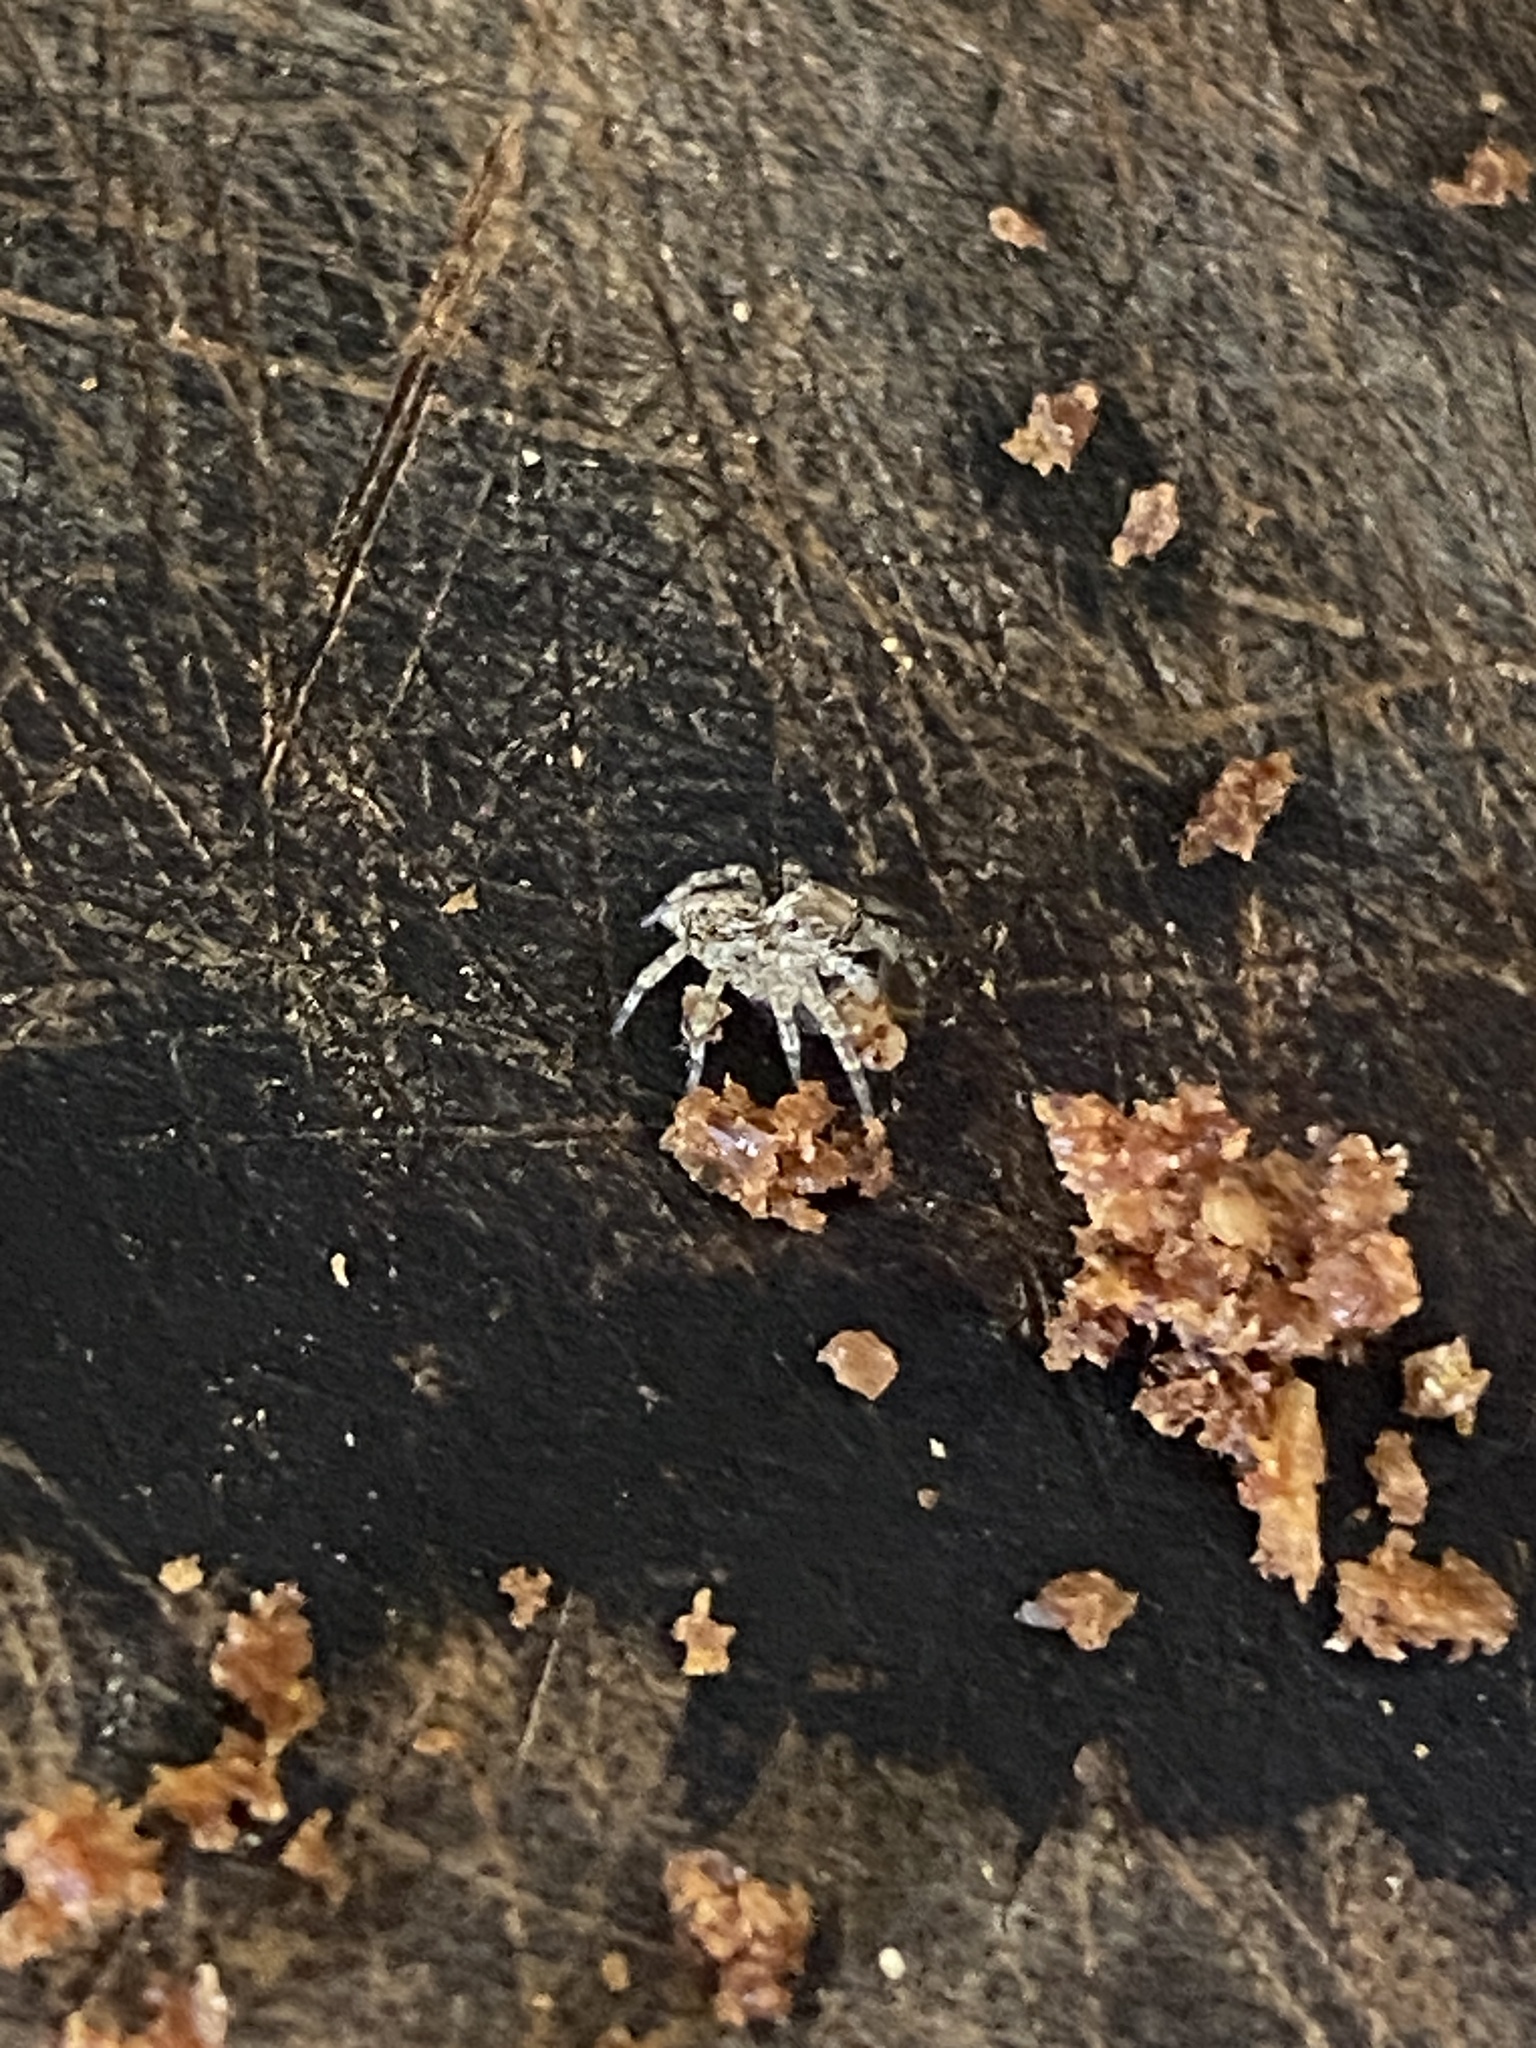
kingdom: Animalia
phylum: Arthropoda
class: Arachnida
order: Araneae
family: Salticidae
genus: Saitis
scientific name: Saitis variegatus
